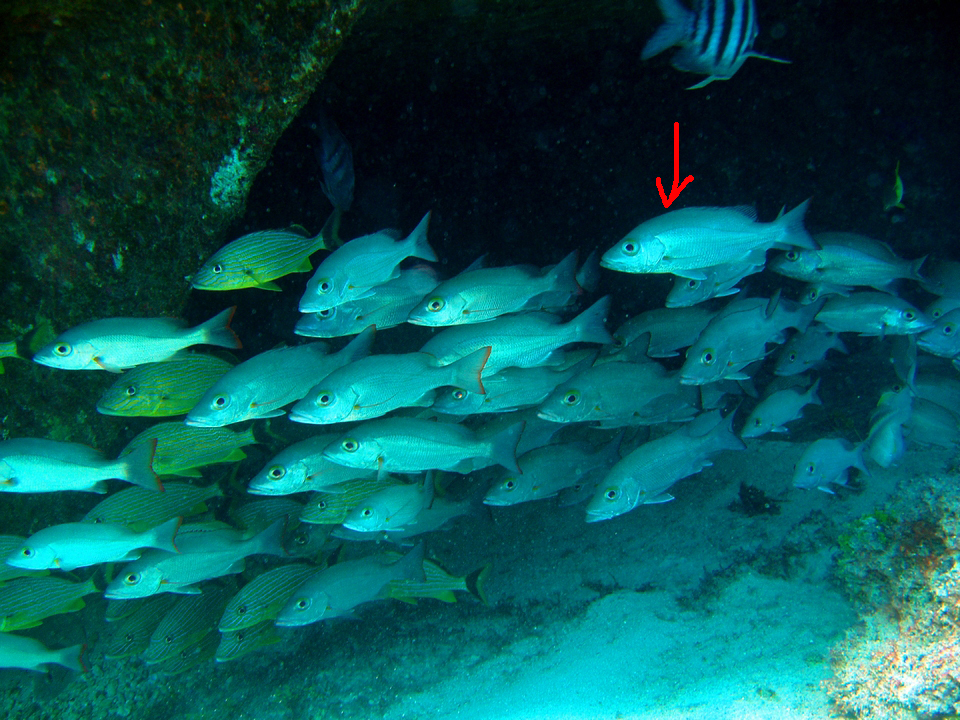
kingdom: Animalia
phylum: Chordata
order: Perciformes
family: Lutjanidae
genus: Lutjanus
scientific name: Lutjanus griseus
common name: Gray snapper
